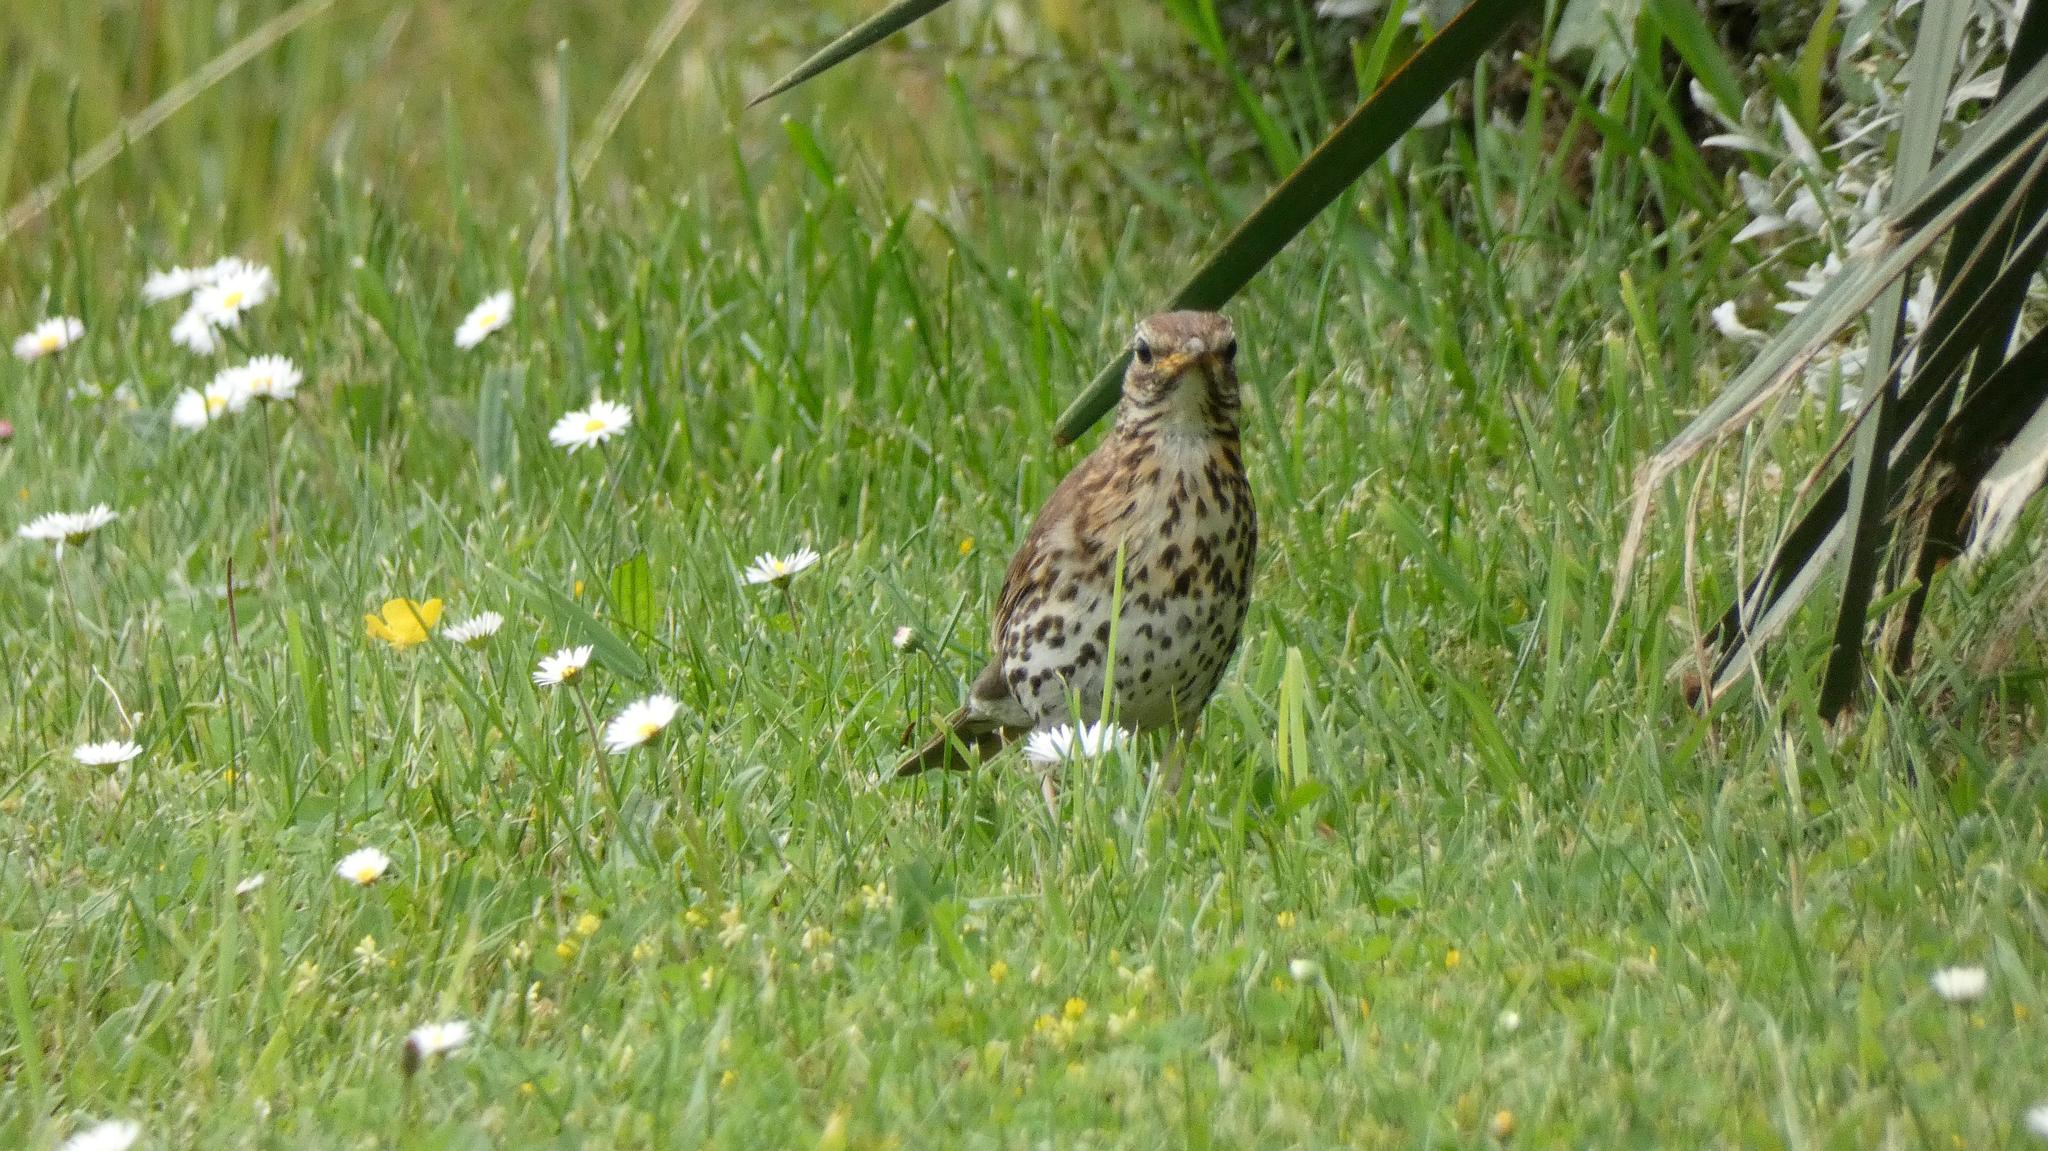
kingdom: Animalia
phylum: Chordata
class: Aves
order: Passeriformes
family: Turdidae
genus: Turdus
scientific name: Turdus philomelos
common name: Song thrush
